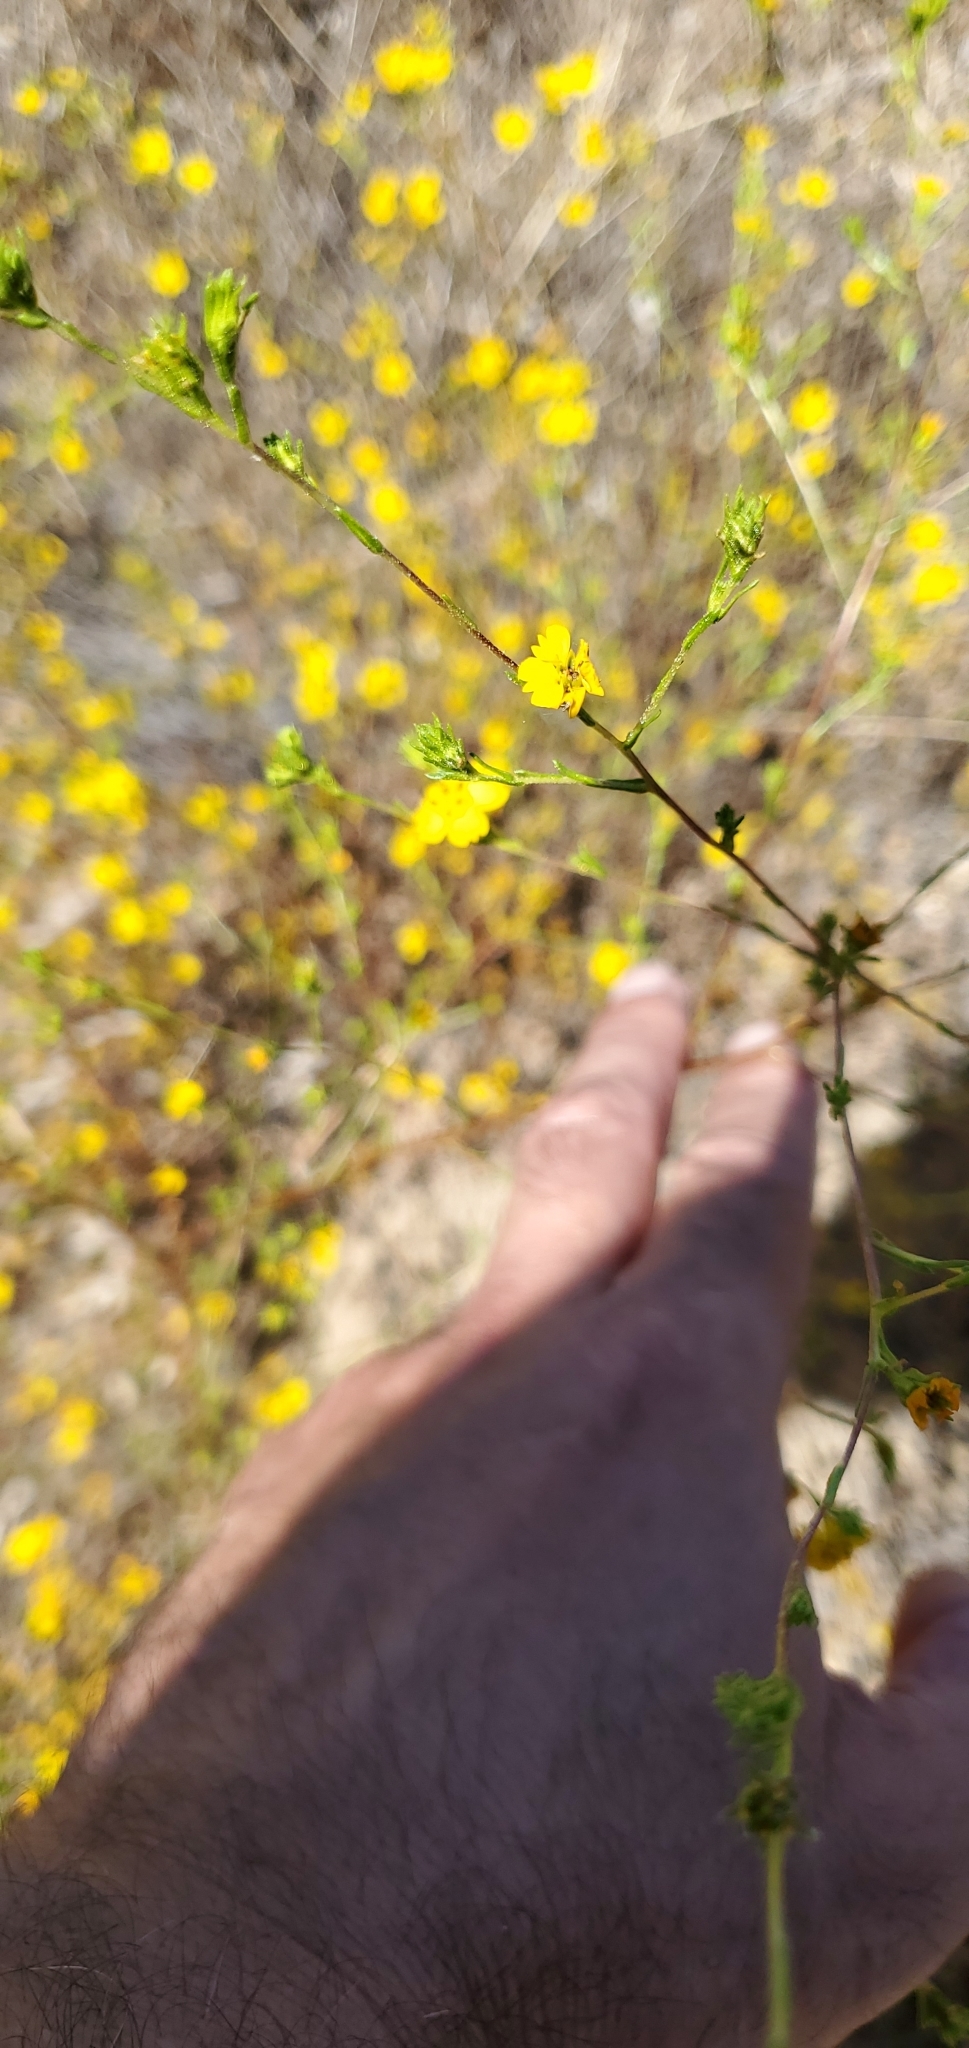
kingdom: Plantae
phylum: Tracheophyta
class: Magnoliopsida
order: Asterales
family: Asteraceae
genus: Deinandra
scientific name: Deinandra fasciculata
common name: Clustered tarweed
